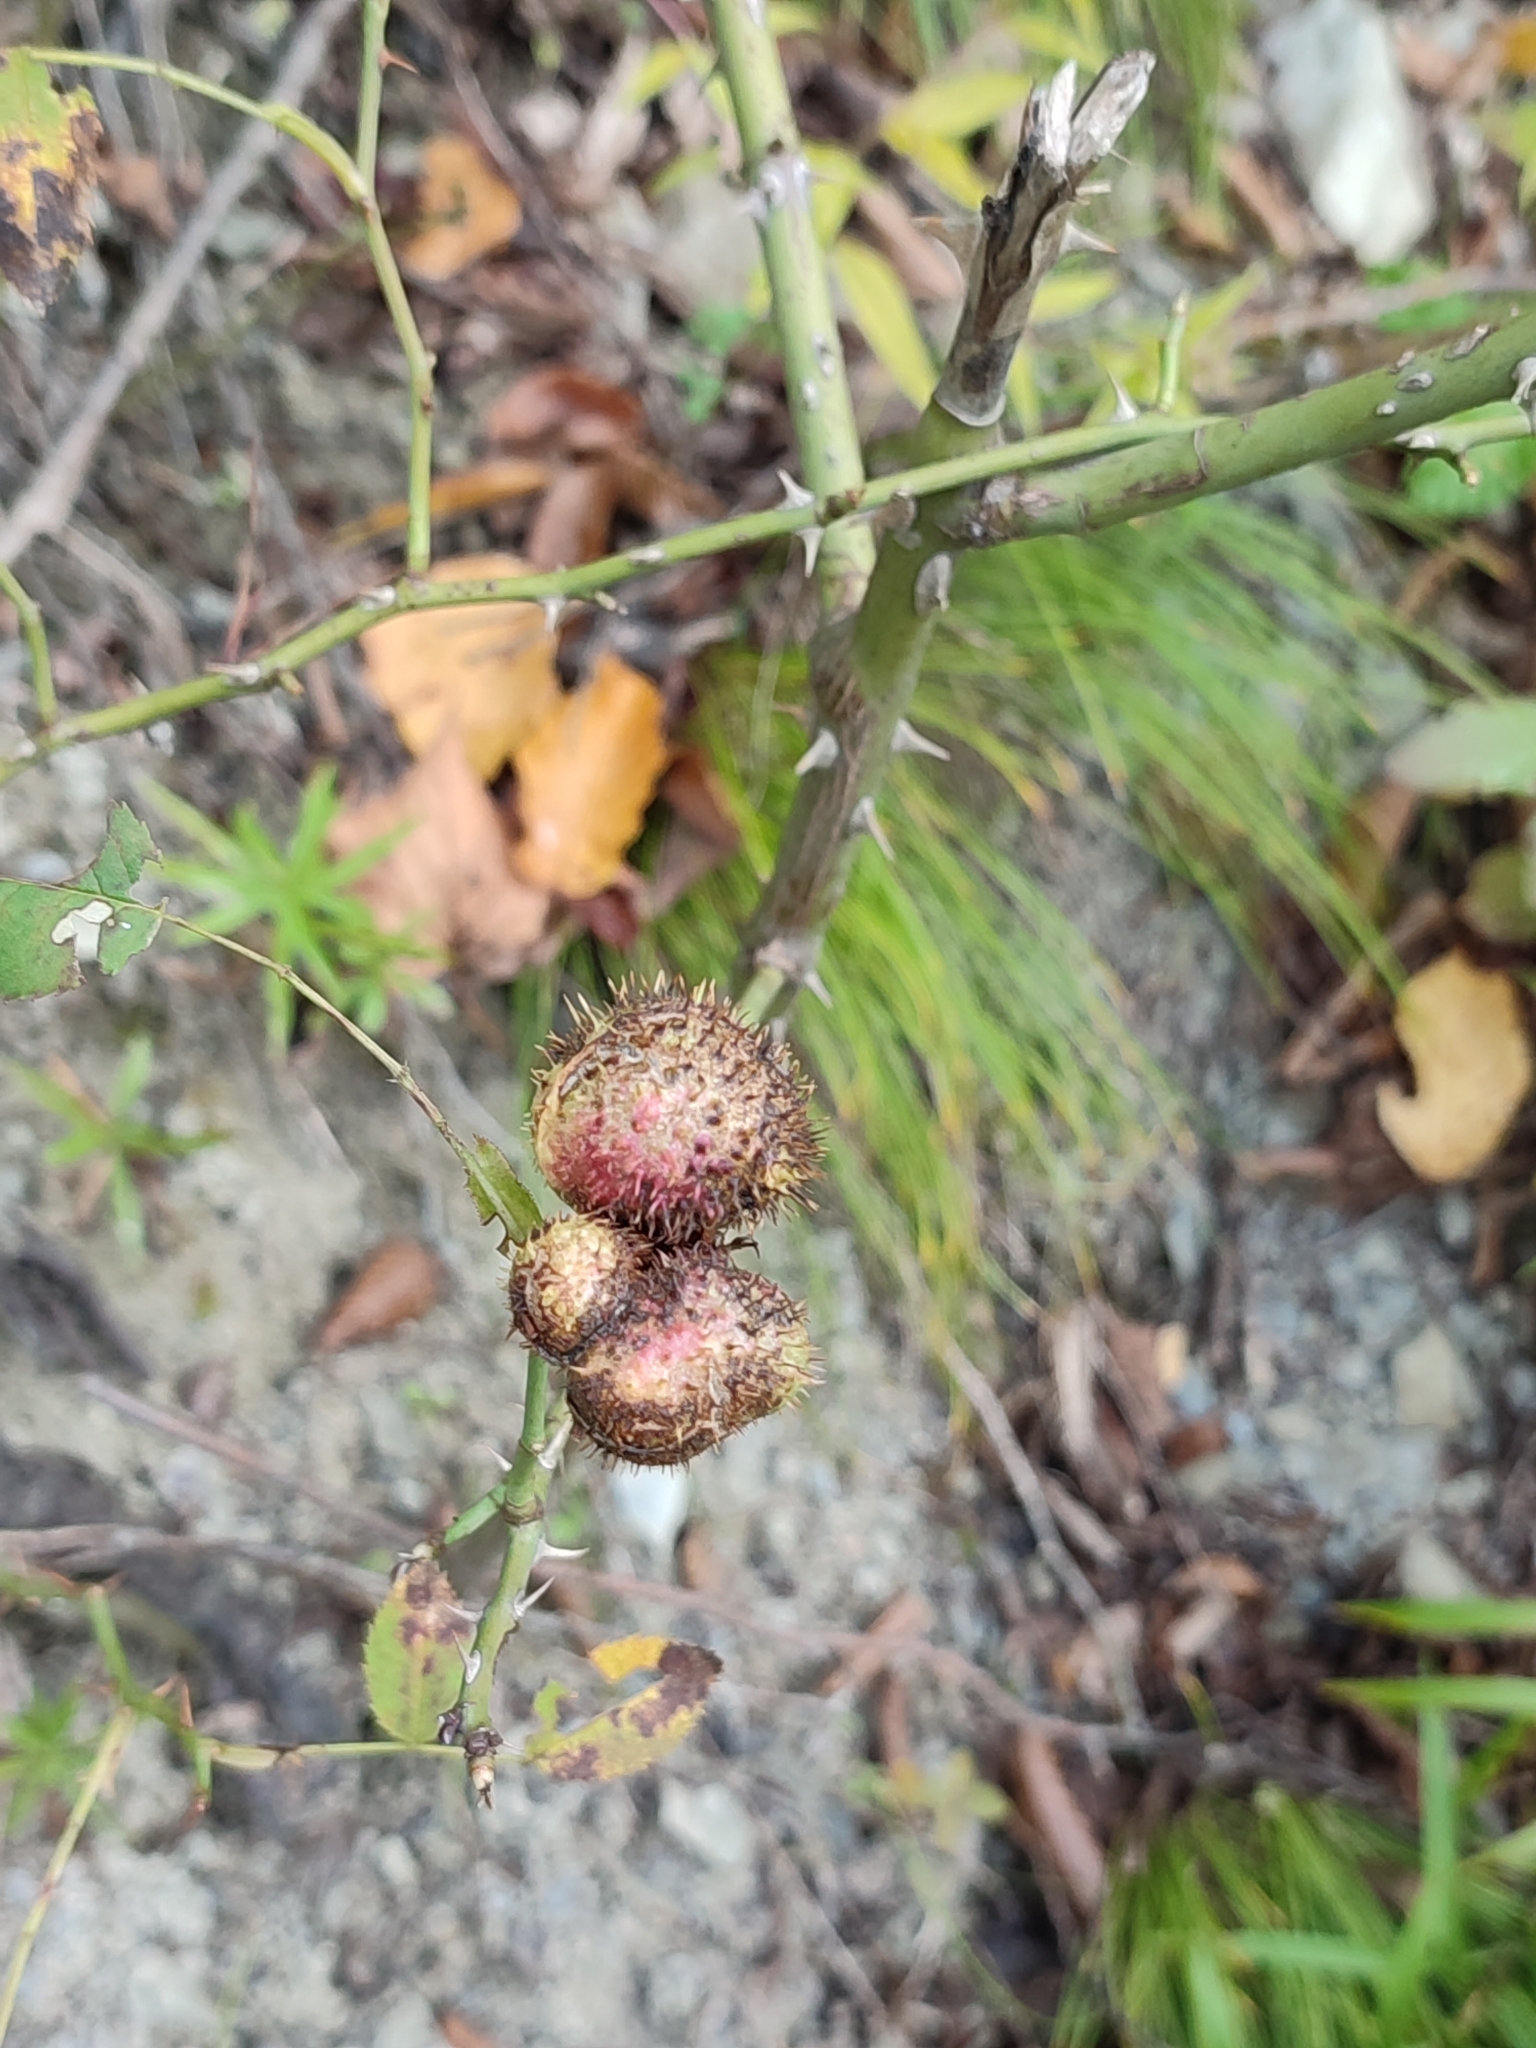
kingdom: Animalia
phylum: Arthropoda
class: Insecta
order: Hymenoptera
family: Cynipidae
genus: Diplolepis
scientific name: Diplolepis mayri
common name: Gall wasp
